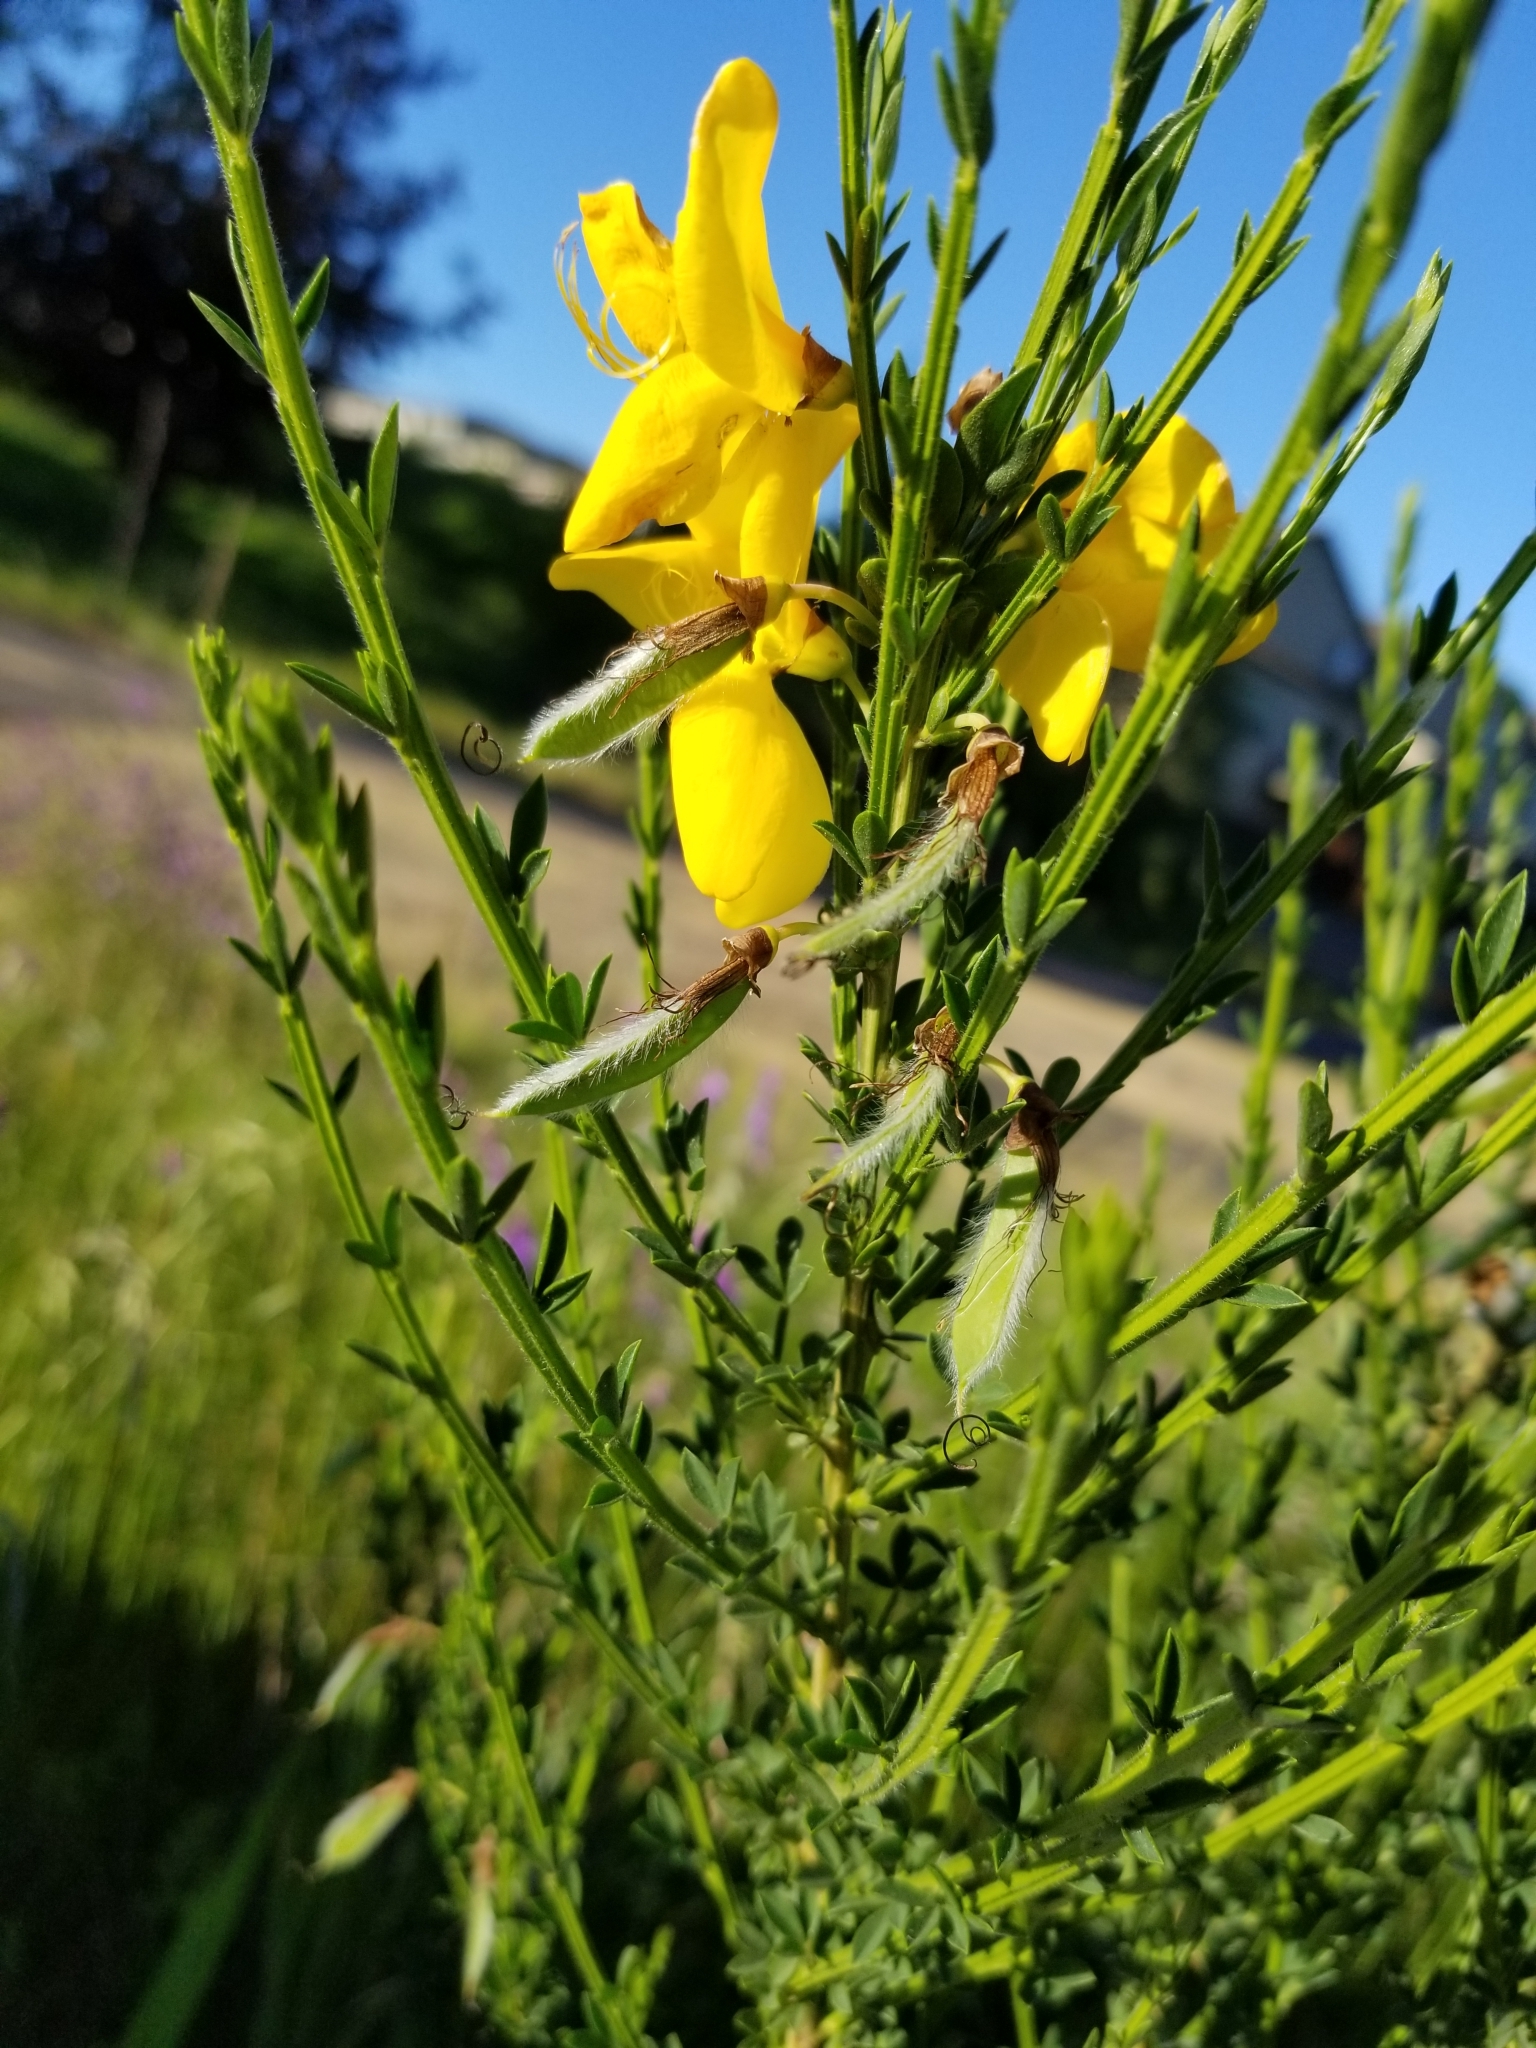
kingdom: Plantae
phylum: Tracheophyta
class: Magnoliopsida
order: Fabales
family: Fabaceae
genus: Cytisus
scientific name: Cytisus scoparius
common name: Scotch broom
